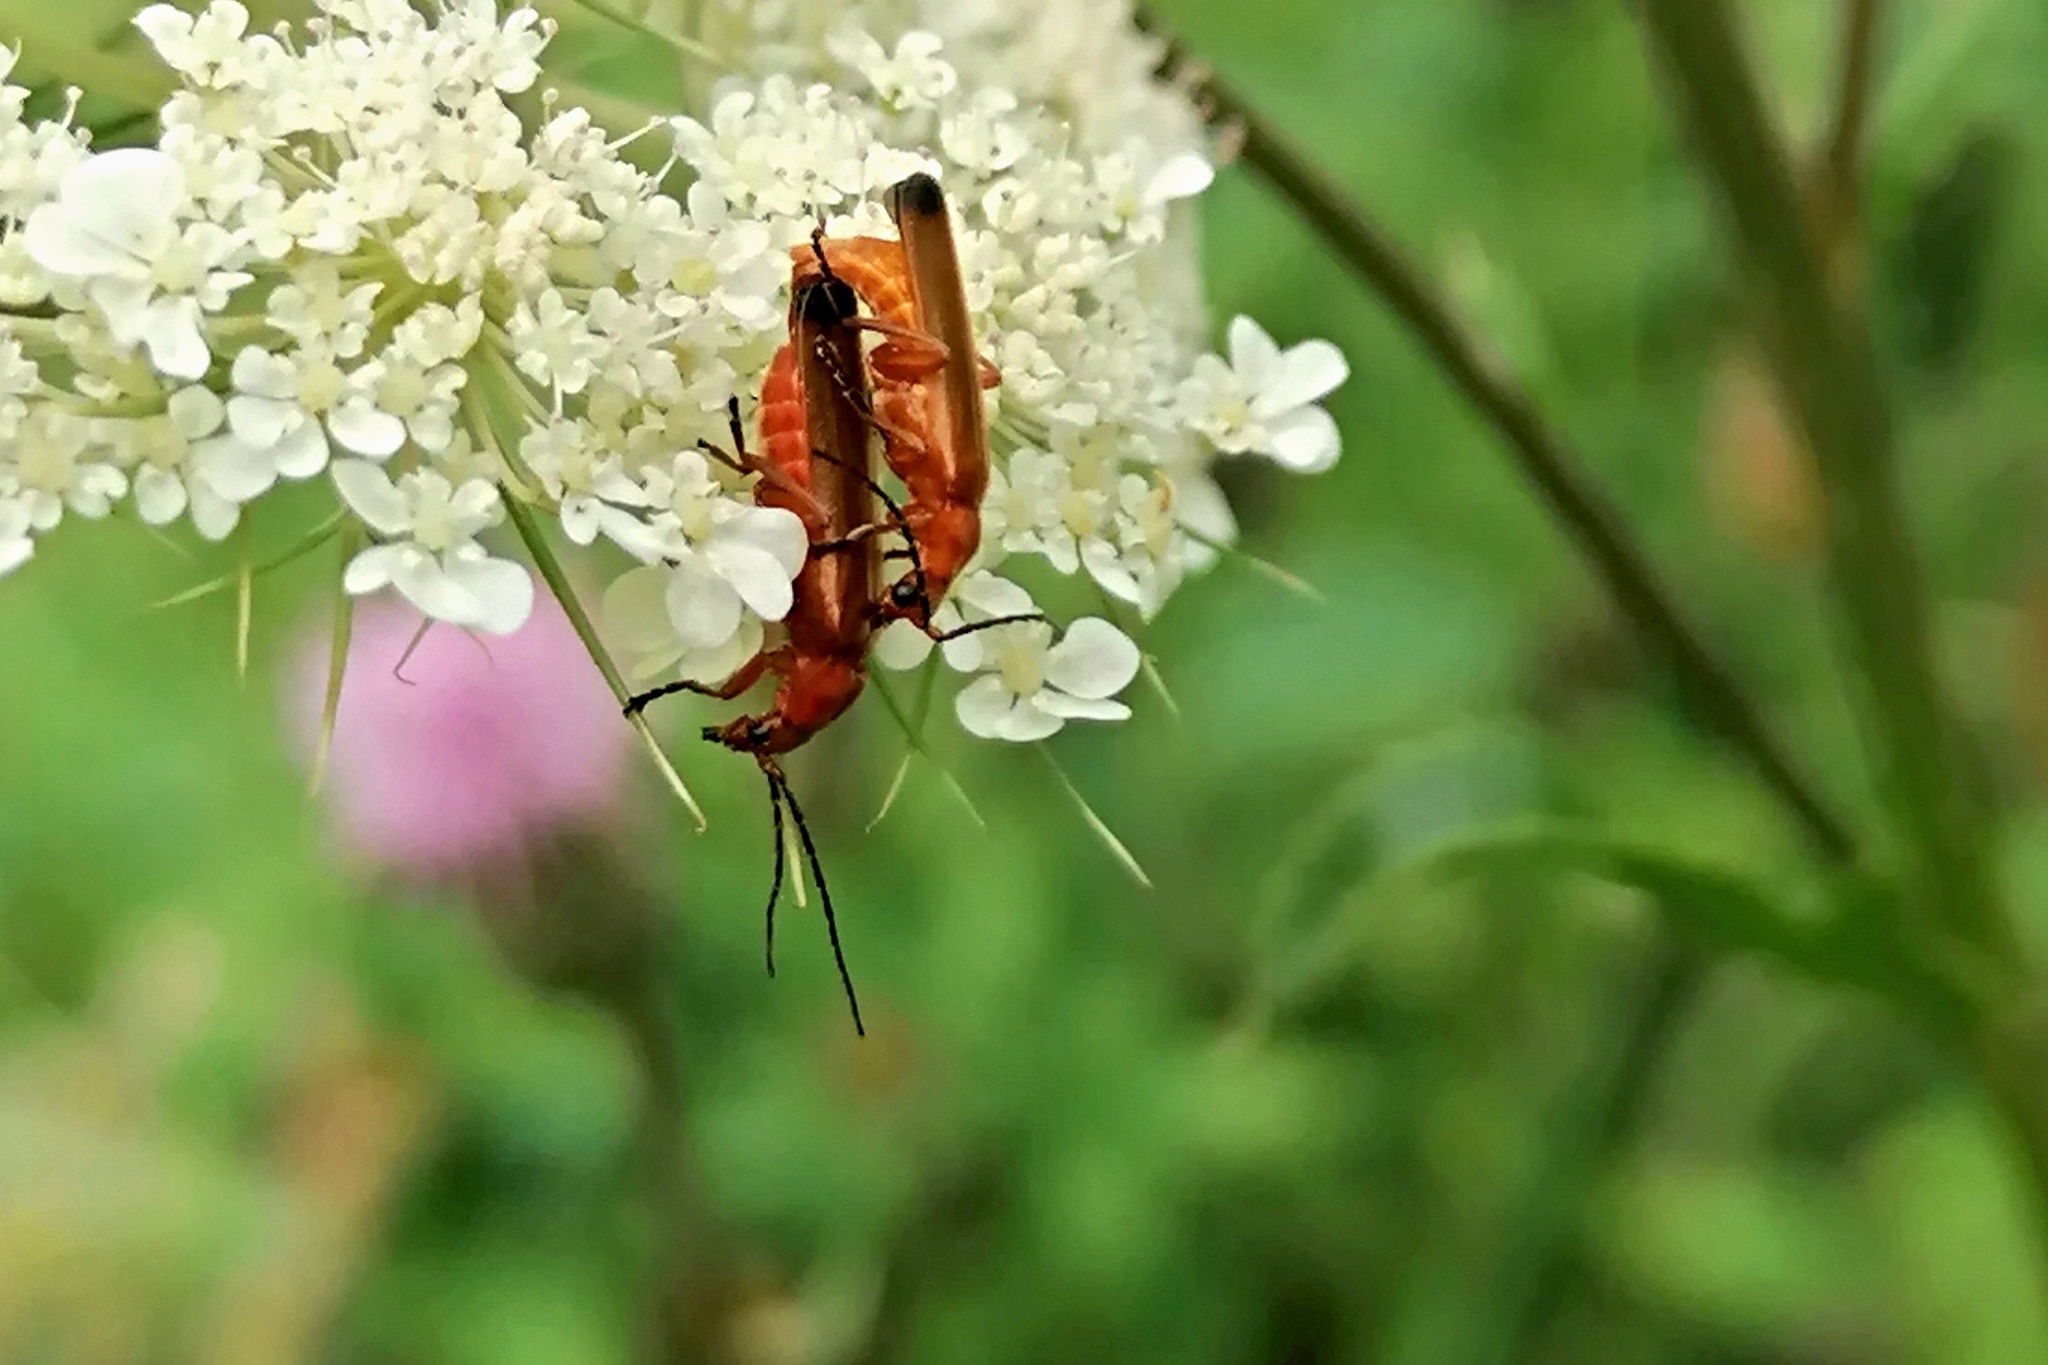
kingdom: Animalia
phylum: Arthropoda
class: Insecta
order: Coleoptera
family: Cantharidae
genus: Rhagonycha
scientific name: Rhagonycha fulva
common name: Common red soldier beetle
